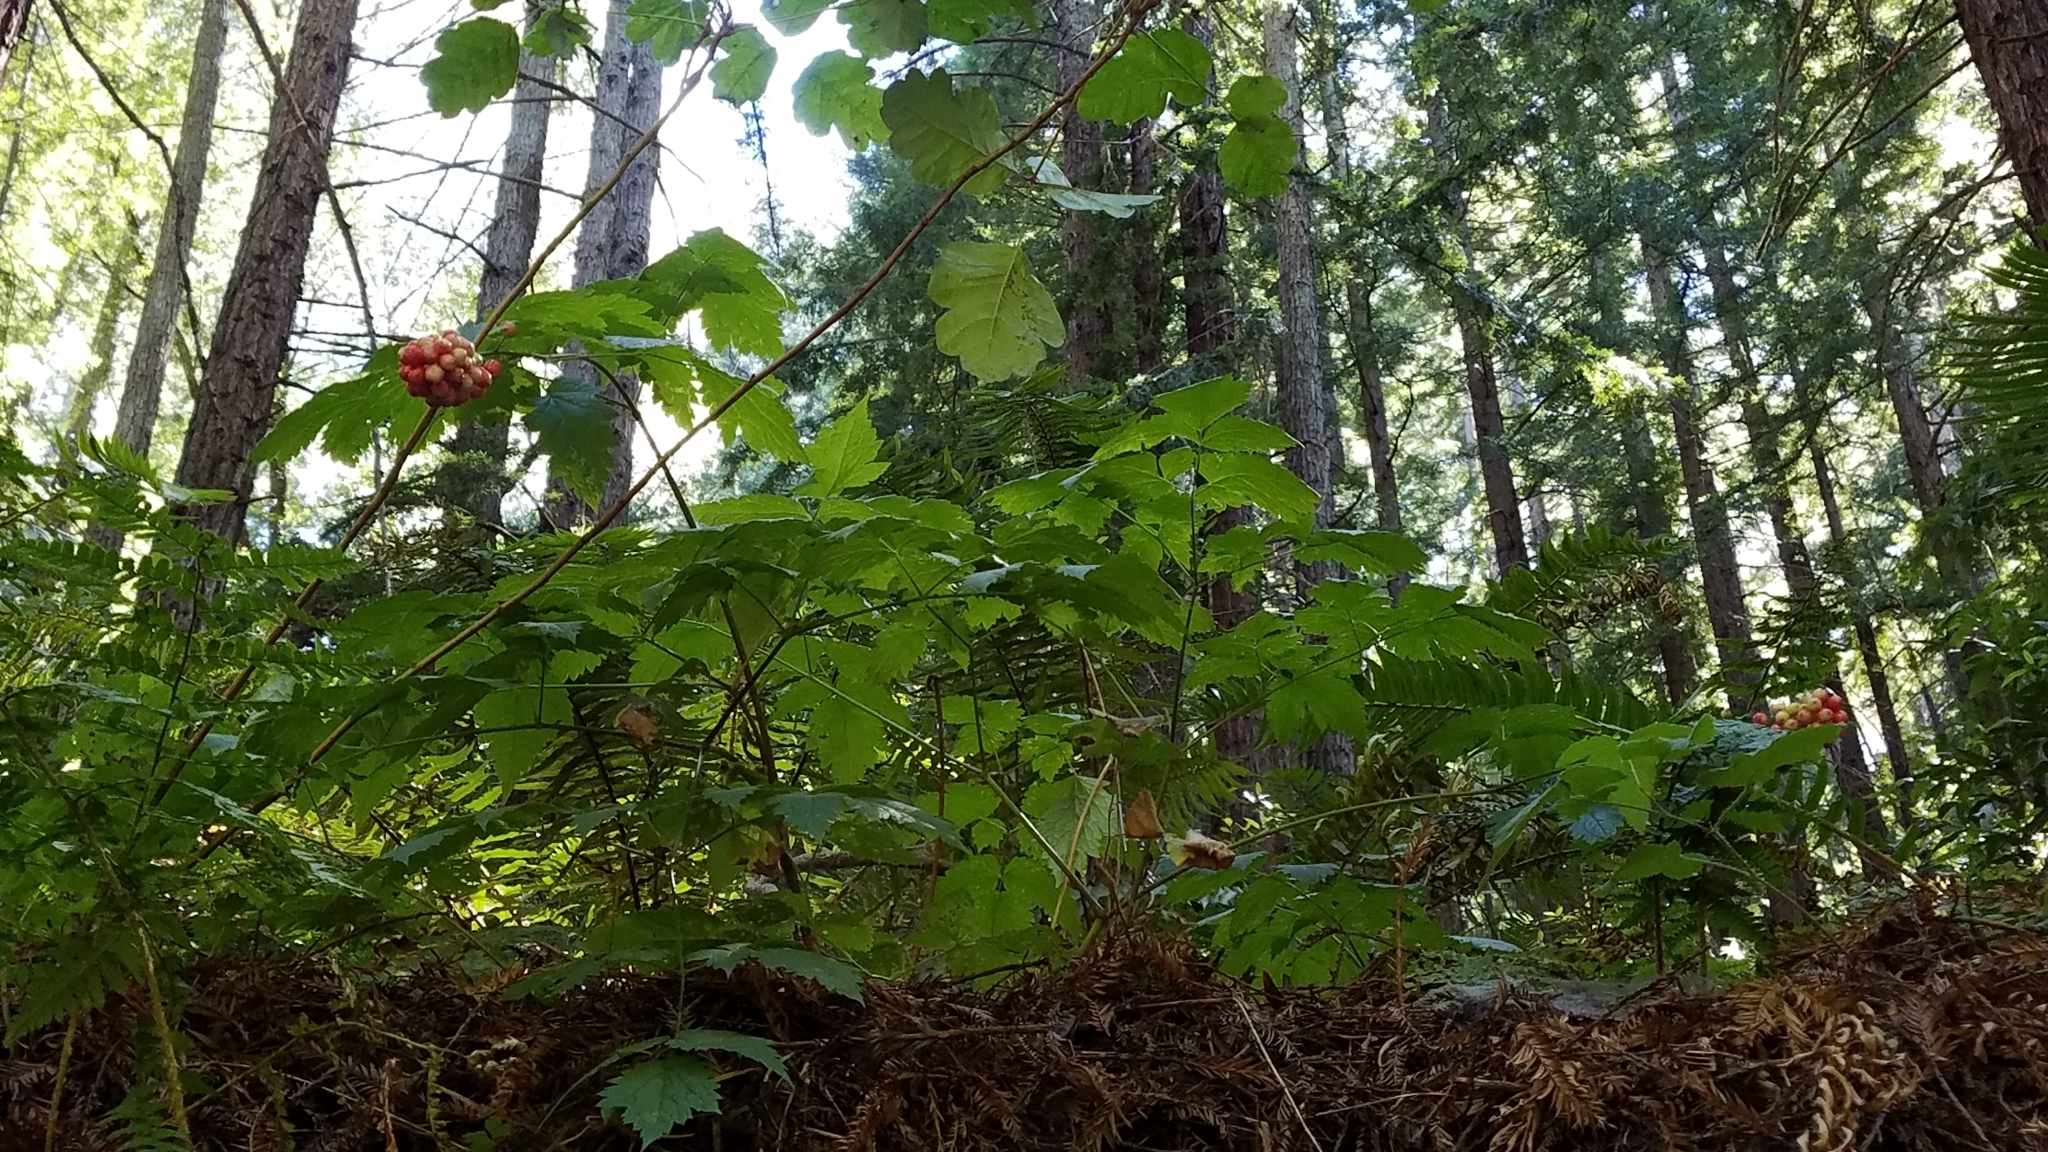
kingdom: Plantae
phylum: Tracheophyta
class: Magnoliopsida
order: Ranunculales
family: Ranunculaceae
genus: Actaea
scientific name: Actaea rubra
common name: Red baneberry
